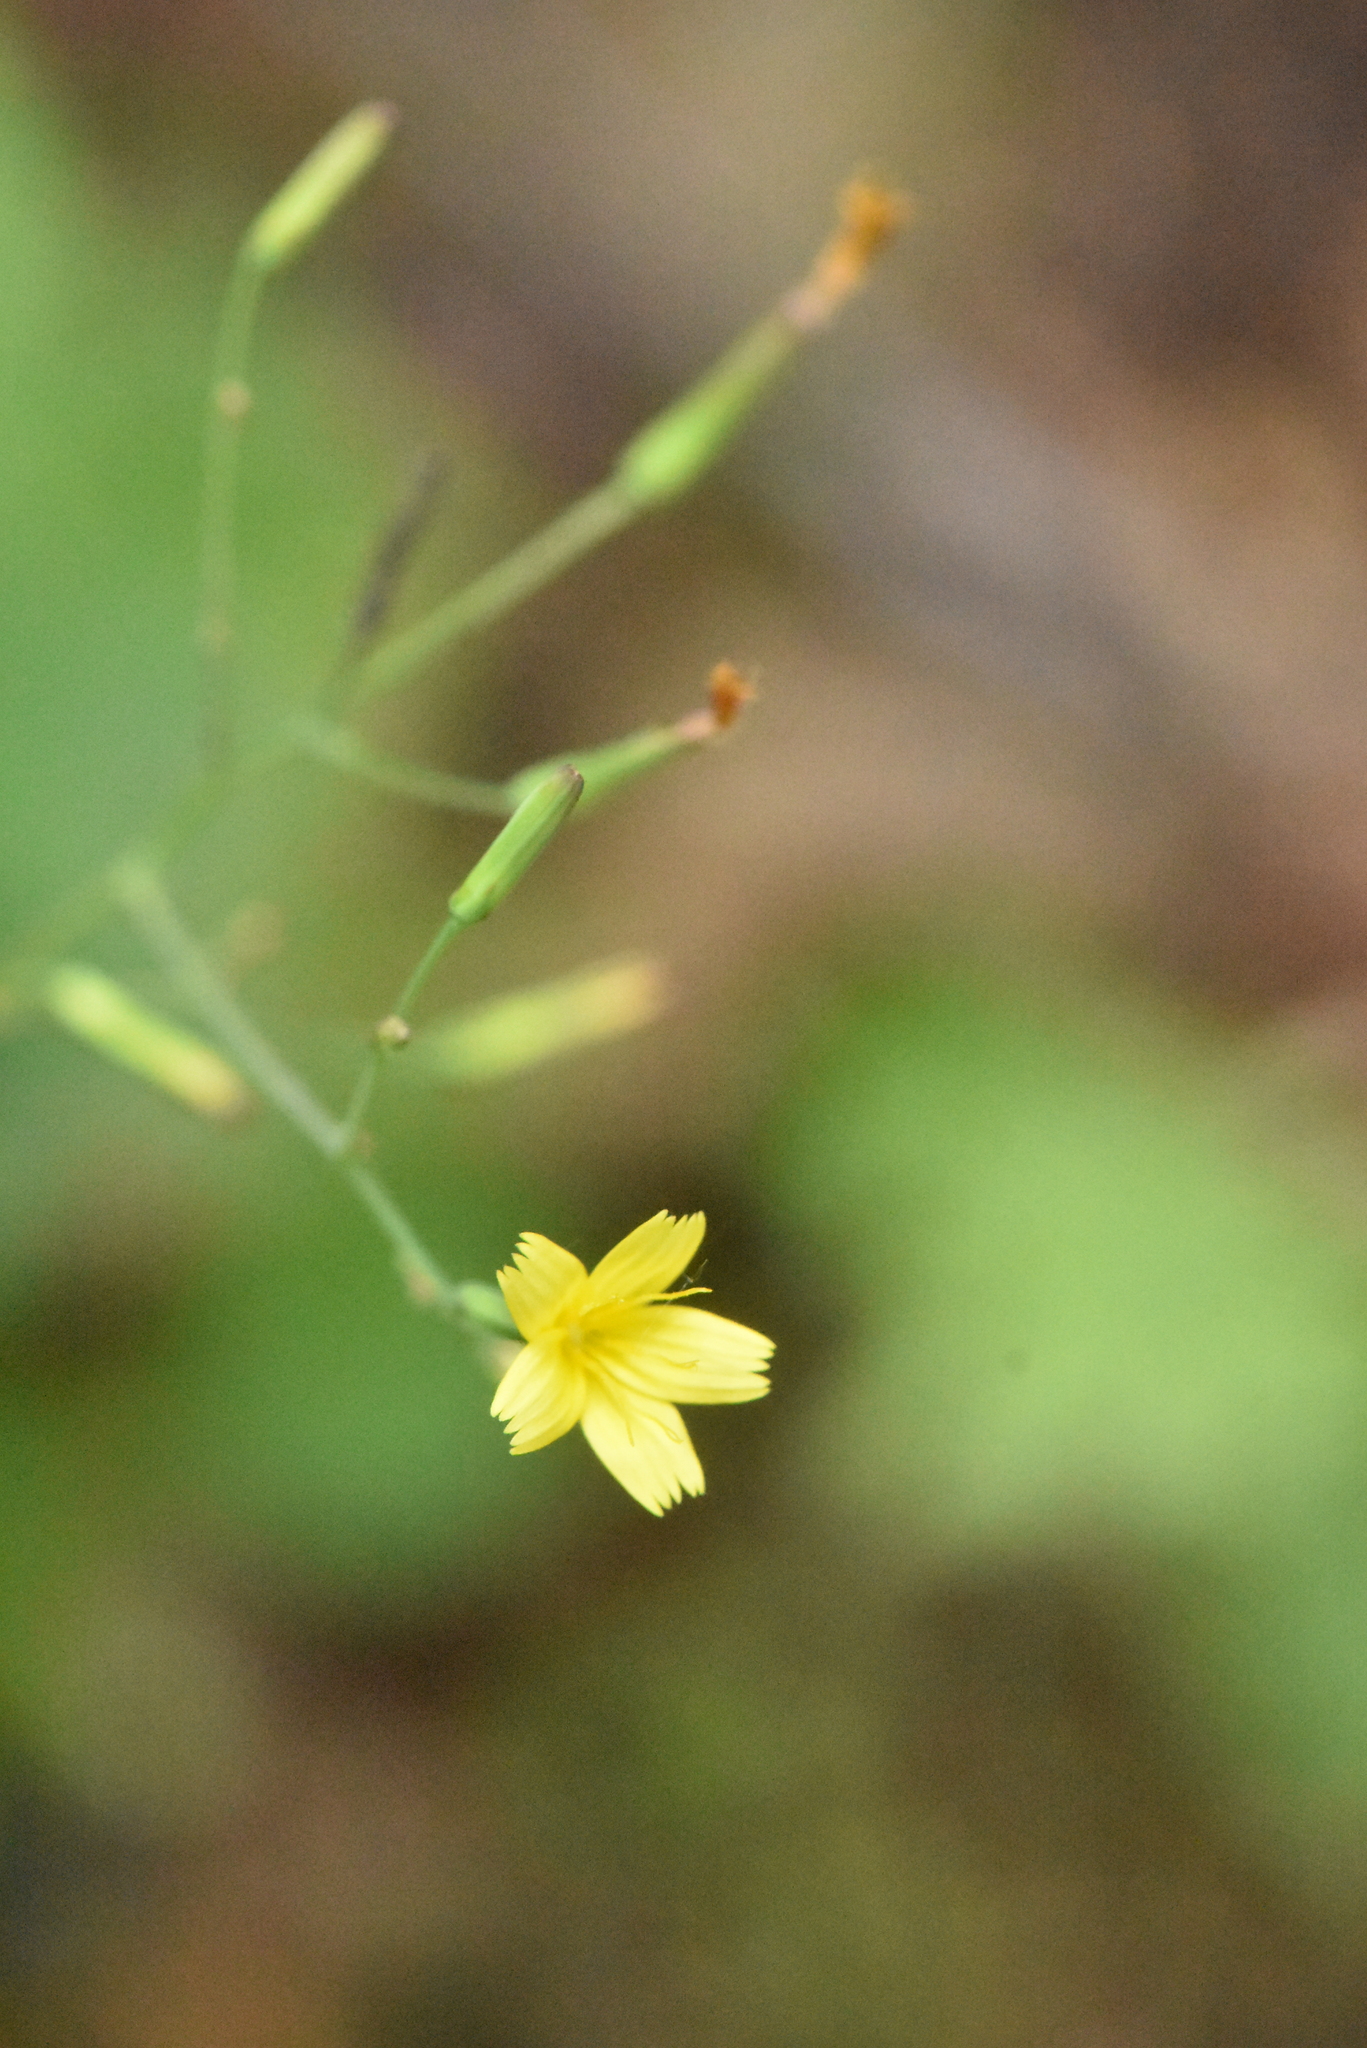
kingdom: Plantae
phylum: Tracheophyta
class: Magnoliopsida
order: Asterales
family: Asteraceae
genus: Mycelis
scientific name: Mycelis muralis
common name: Wall lettuce
